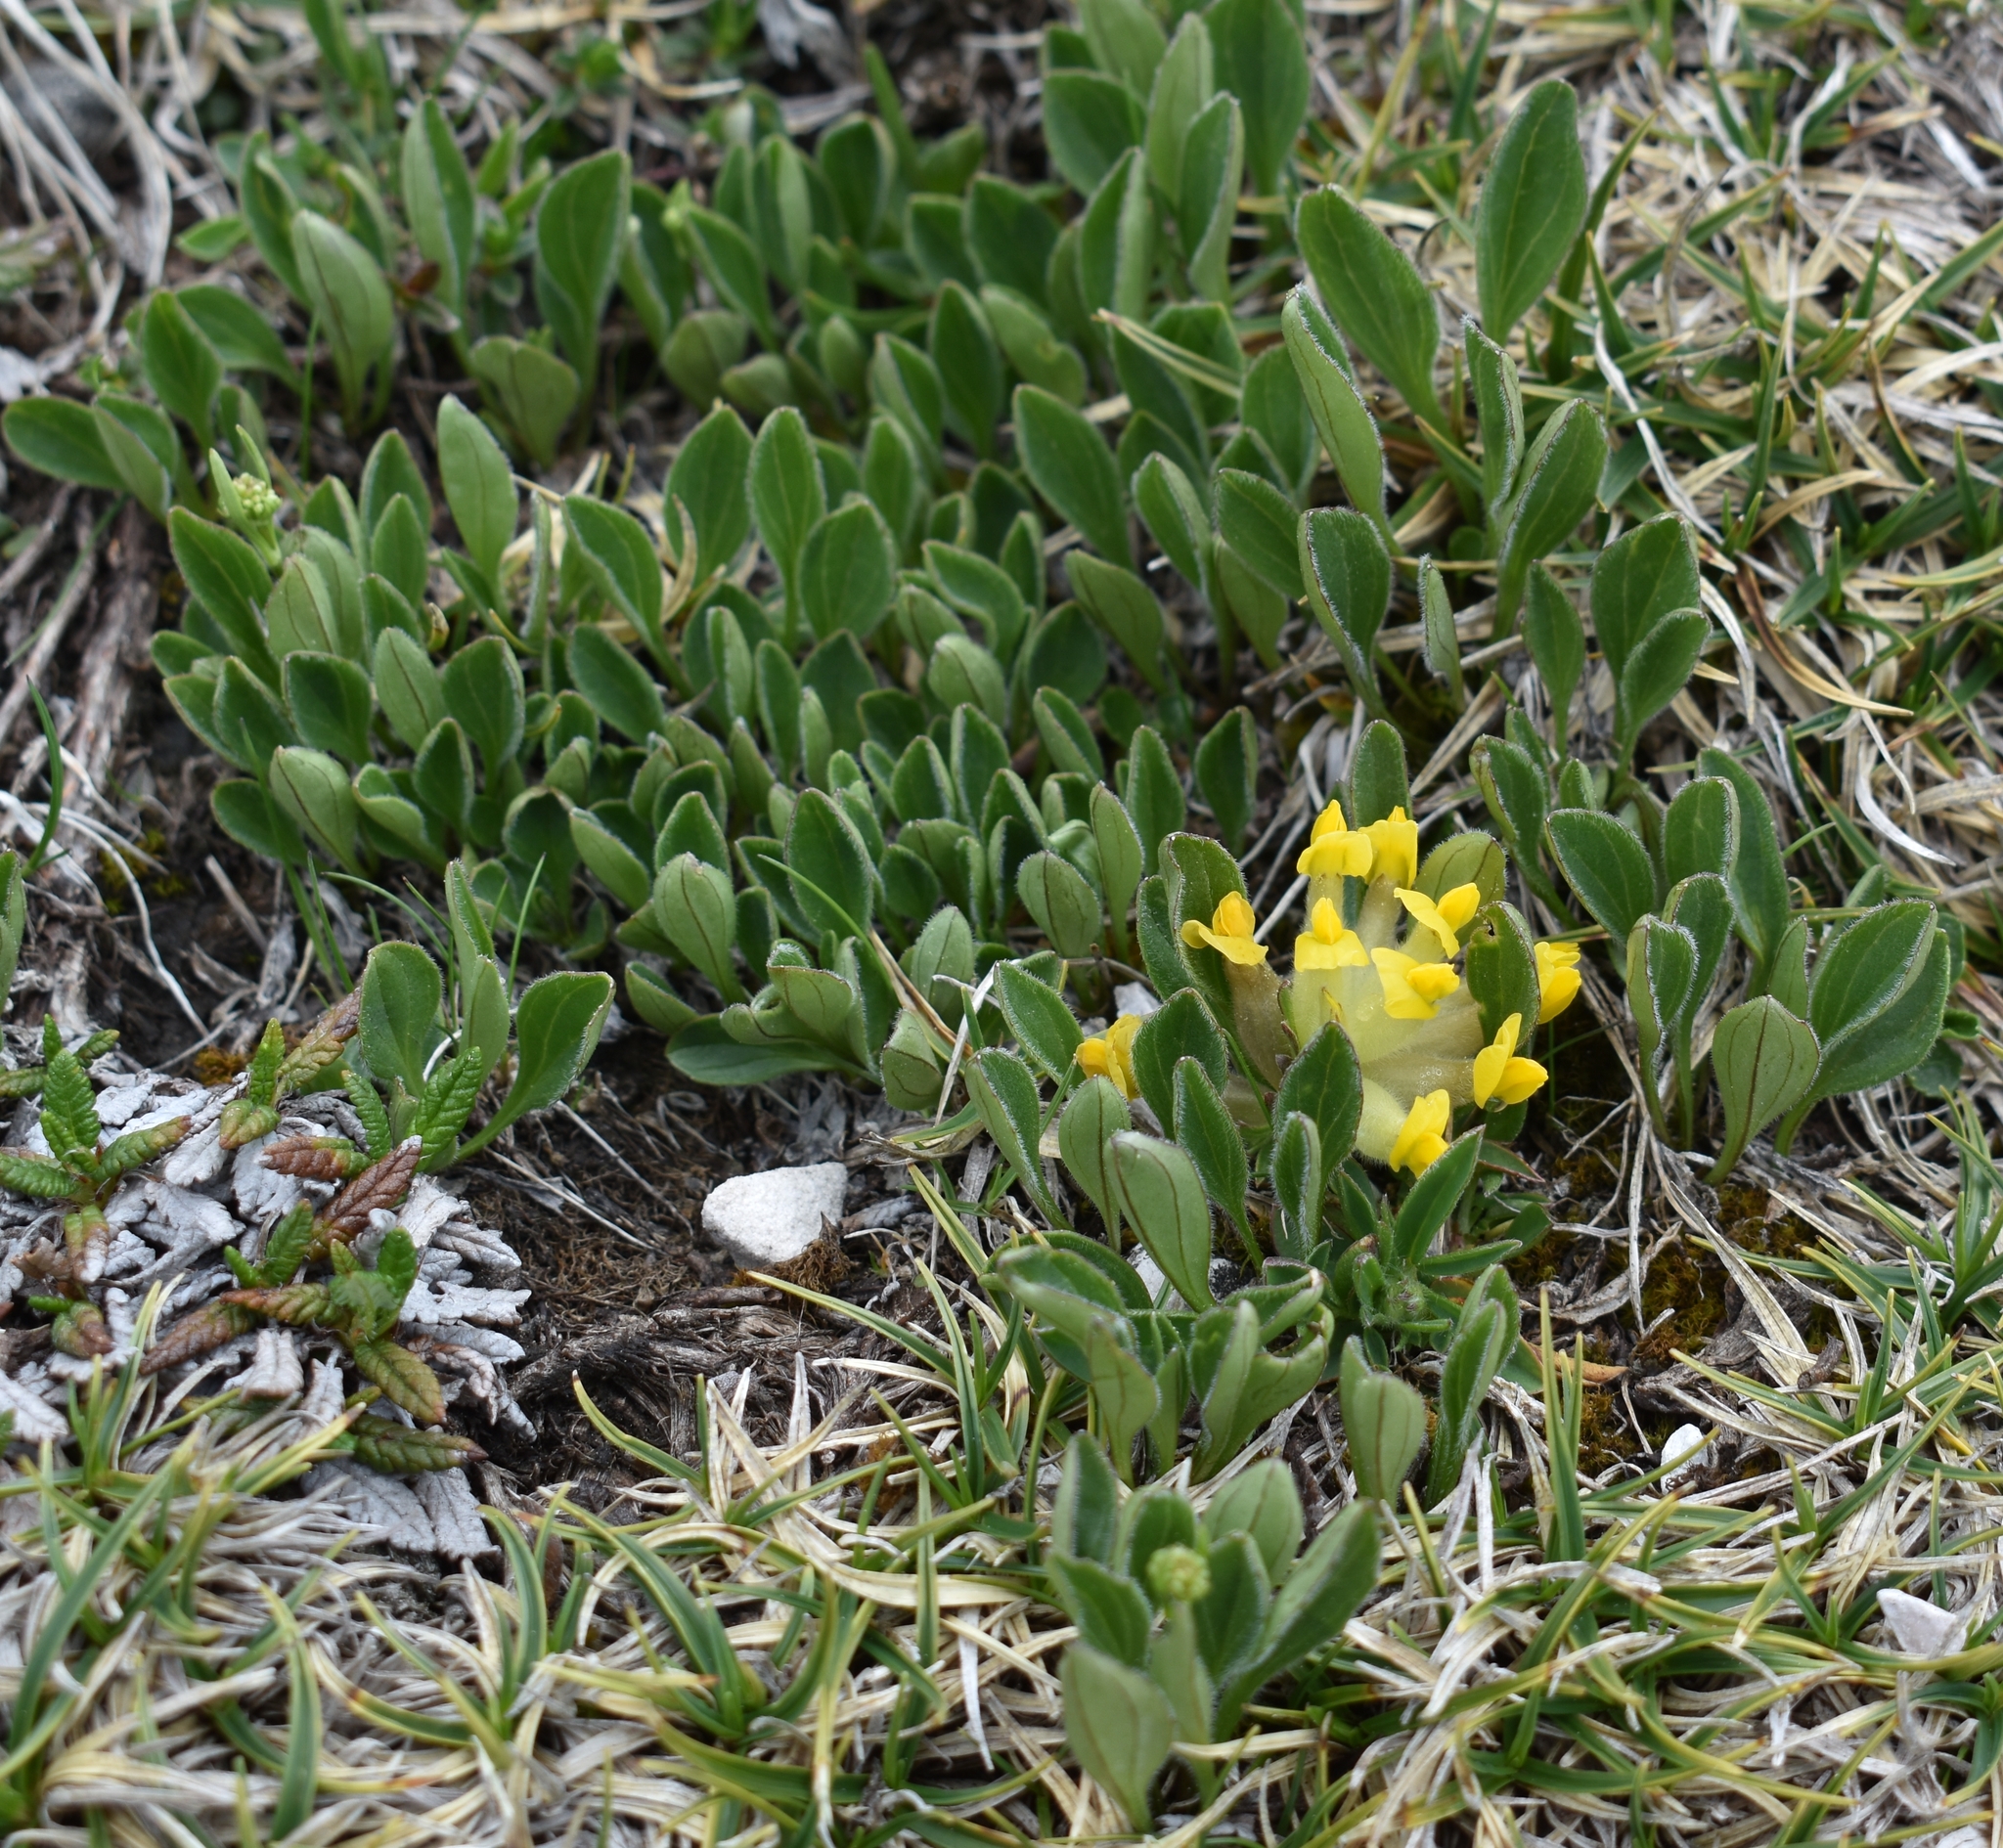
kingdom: Plantae
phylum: Tracheophyta
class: Magnoliopsida
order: Fabales
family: Fabaceae
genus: Anthyllis
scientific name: Anthyllis vulneraria
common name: Kidney vetch
